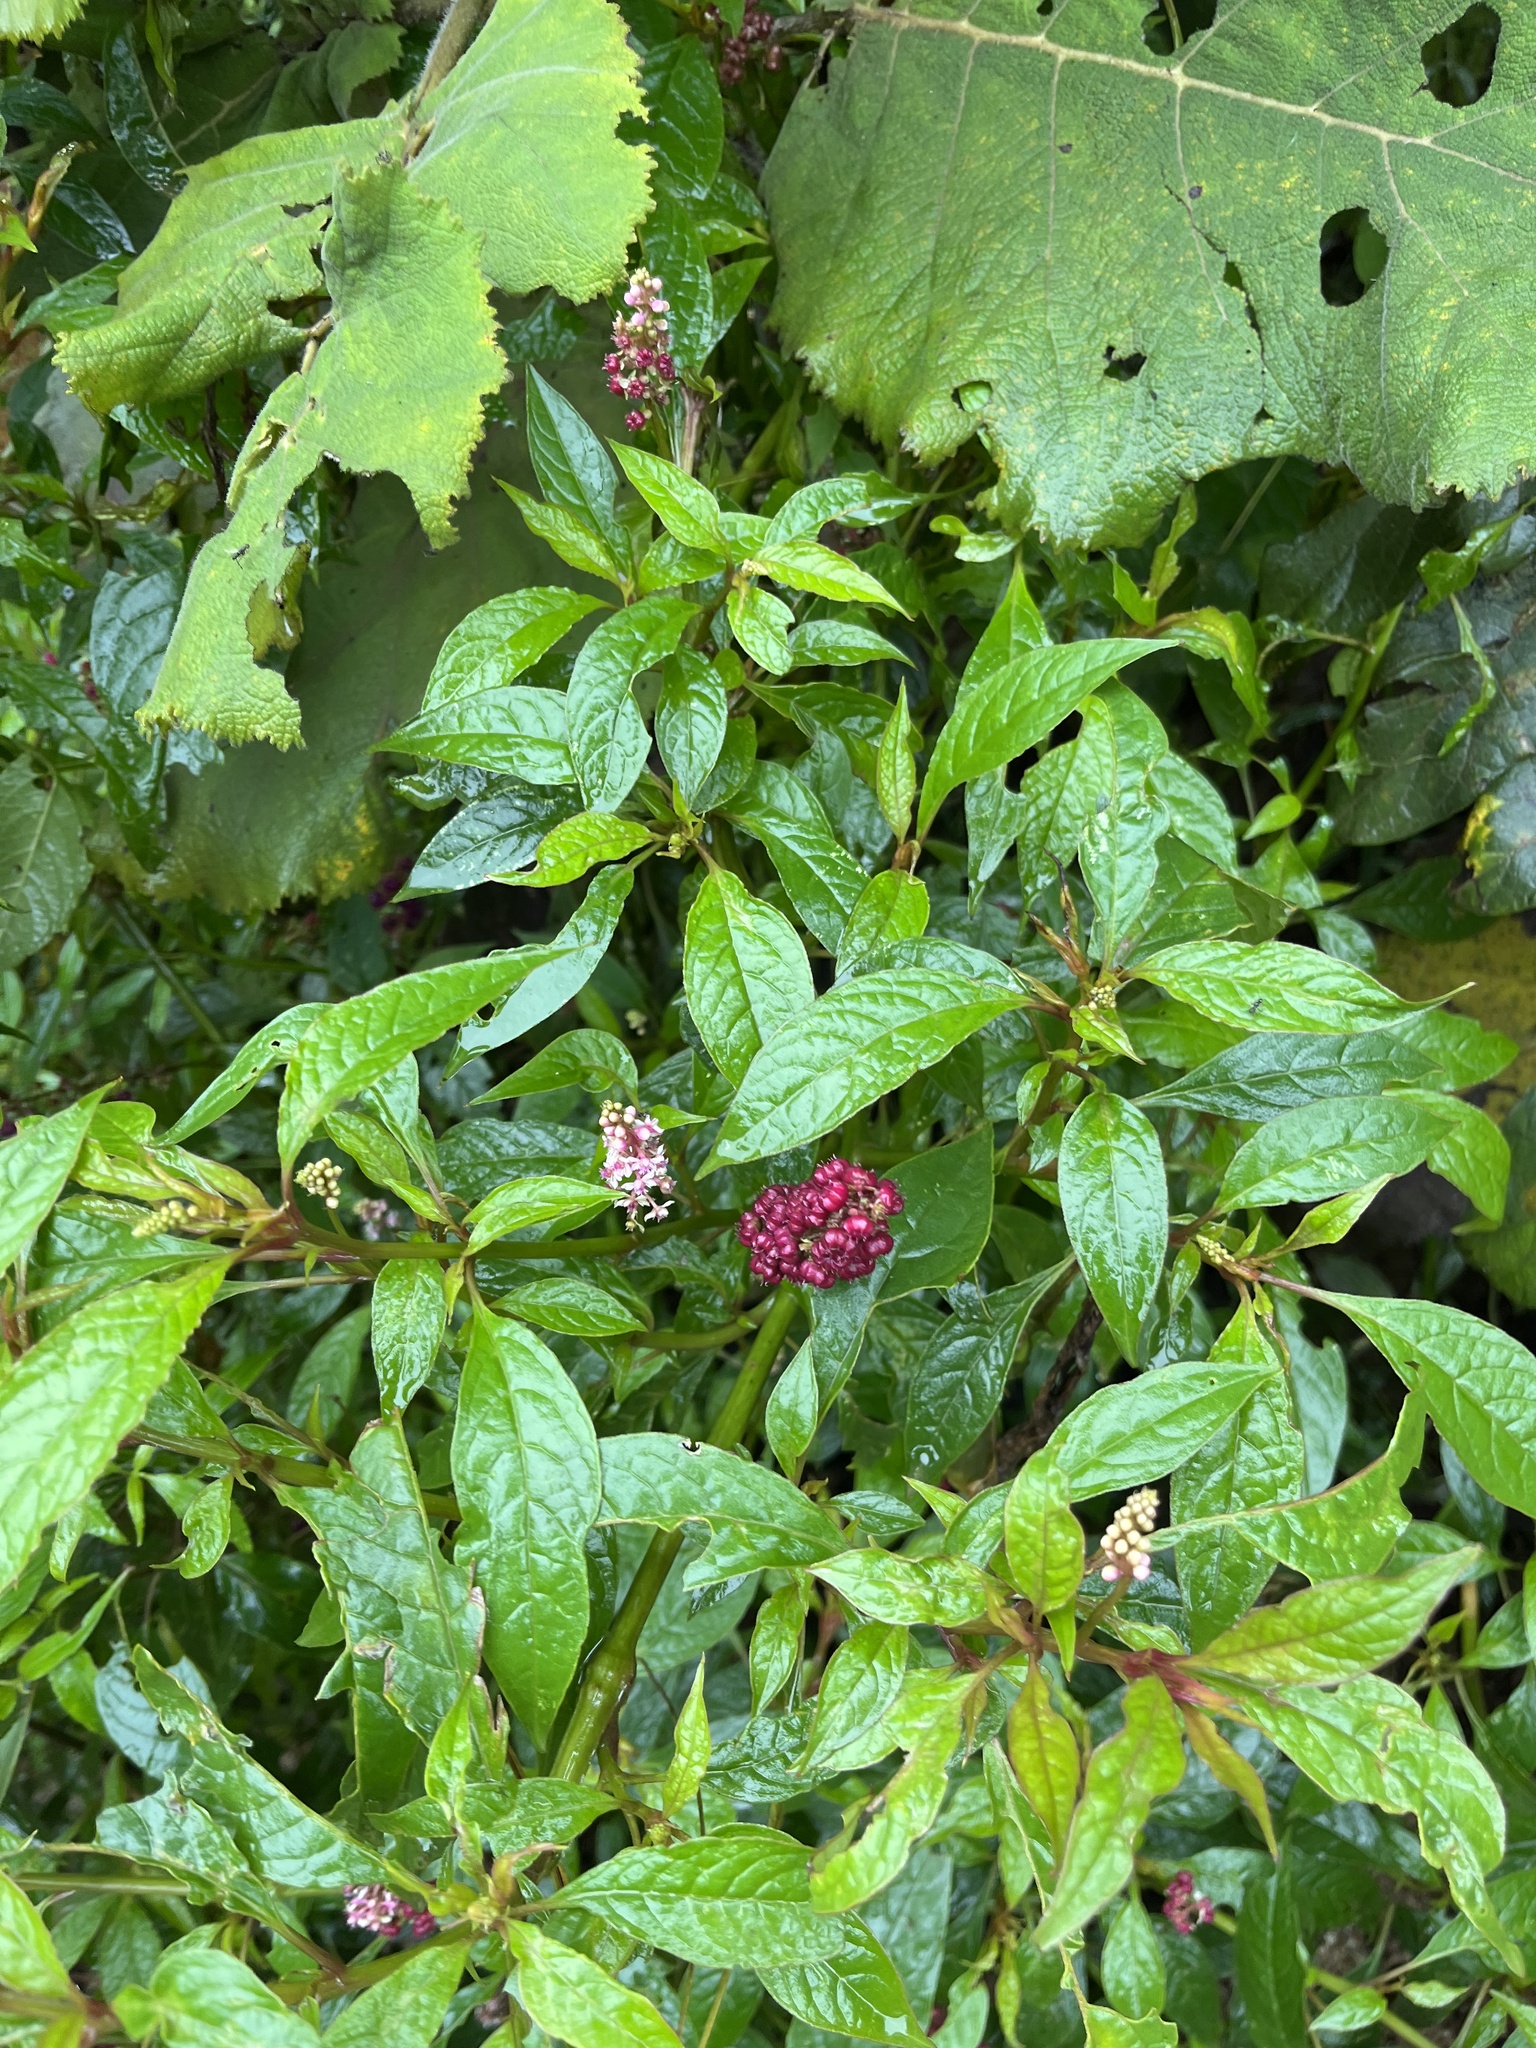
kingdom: Plantae
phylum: Tracheophyta
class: Magnoliopsida
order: Caryophyllales
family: Phytolaccaceae
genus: Phytolacca
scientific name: Phytolacca rugosa
